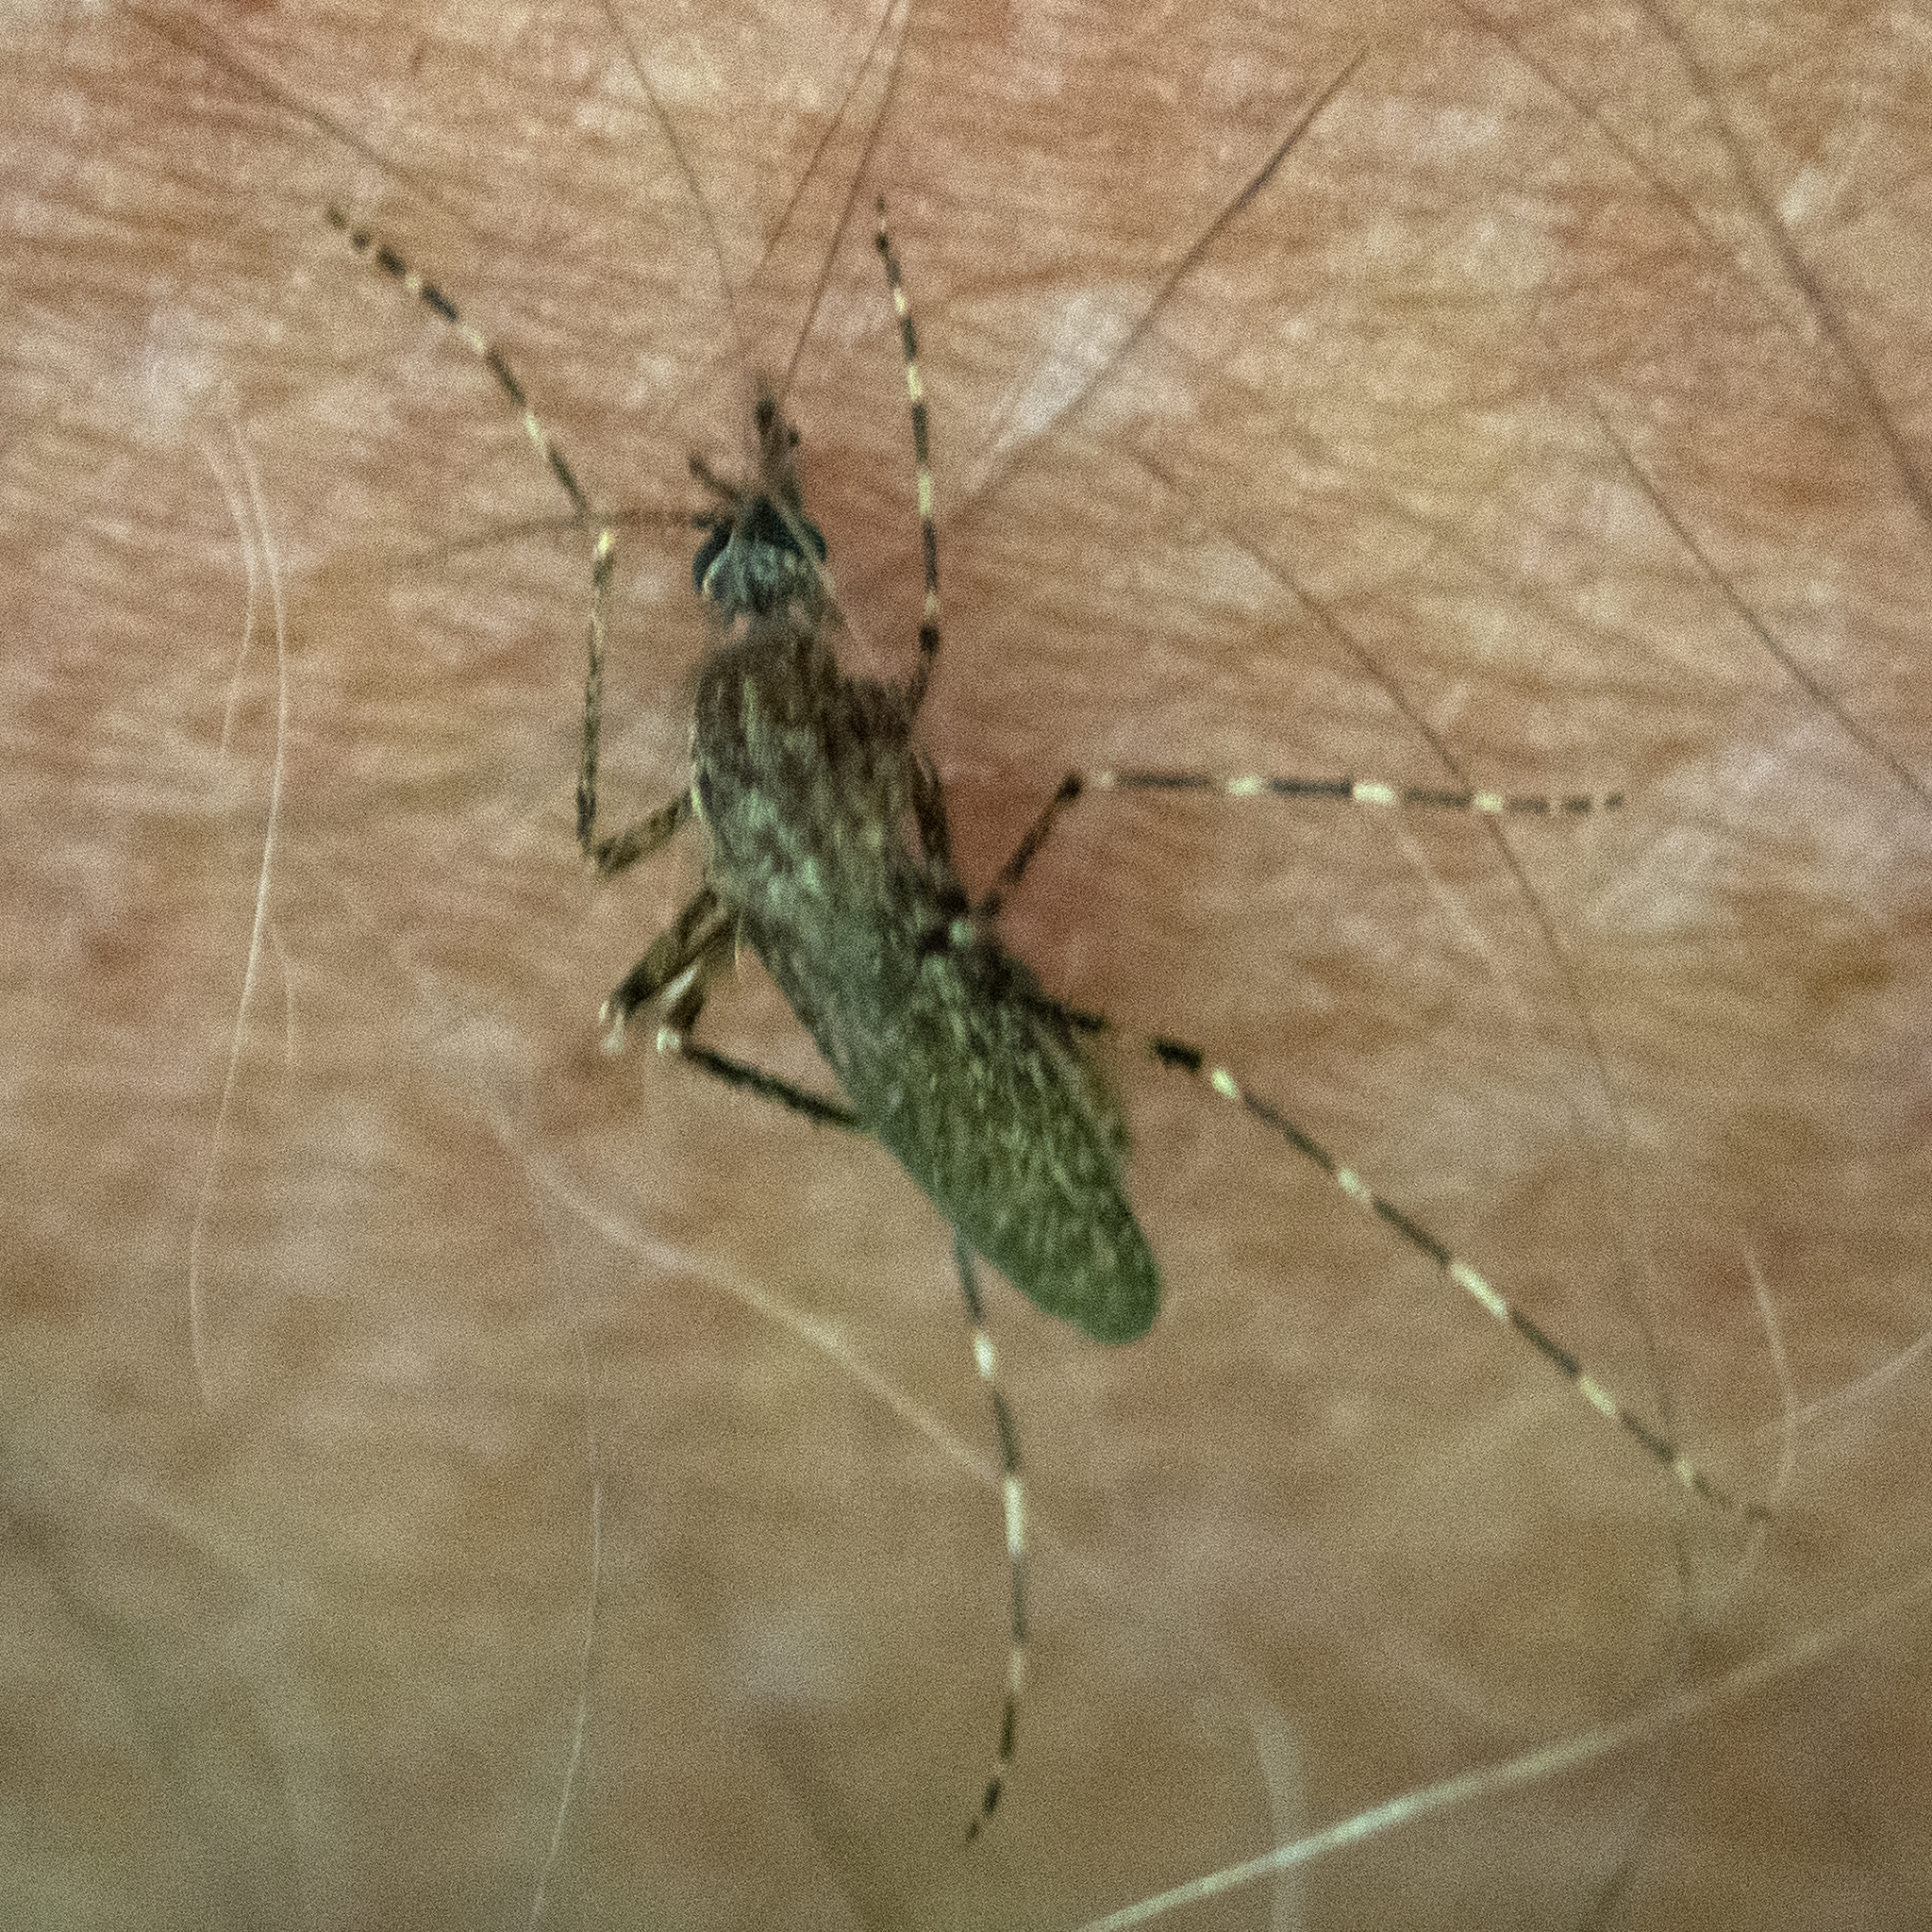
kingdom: Animalia
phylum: Arthropoda
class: Insecta
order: Diptera
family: Culicidae
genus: Coquillettidia
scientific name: Coquillettidia perturbans
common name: Cattail mosquito
